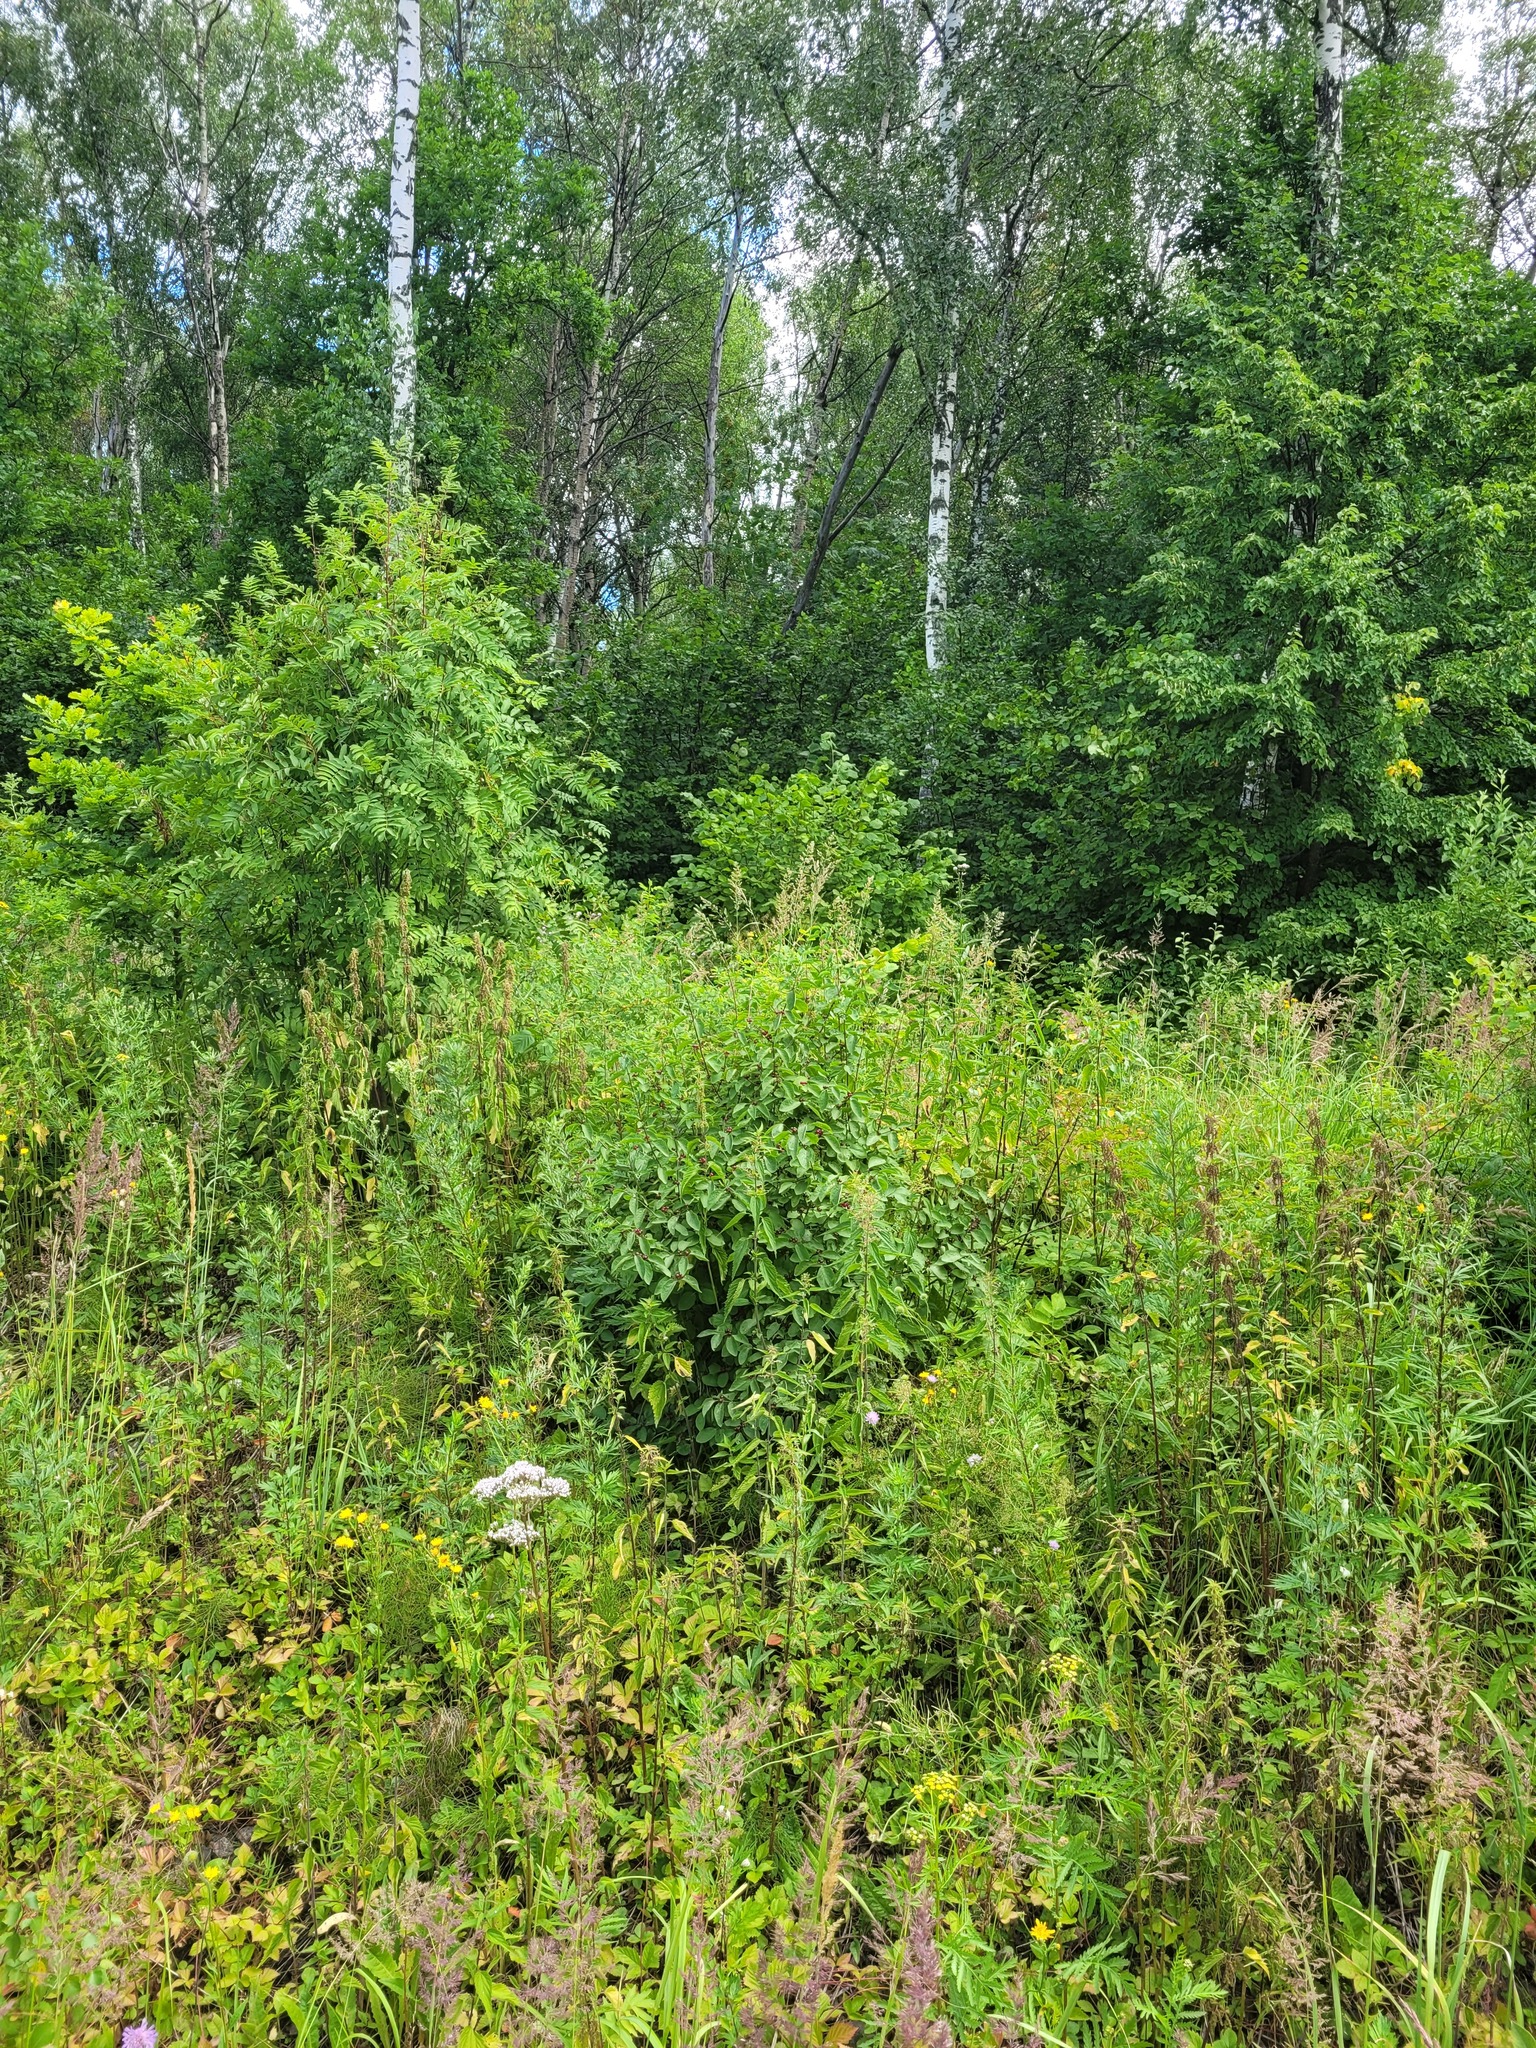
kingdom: Plantae
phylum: Tracheophyta
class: Magnoliopsida
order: Dipsacales
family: Caprifoliaceae
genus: Lonicera
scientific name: Lonicera xylosteum
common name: Fly honeysuckle
